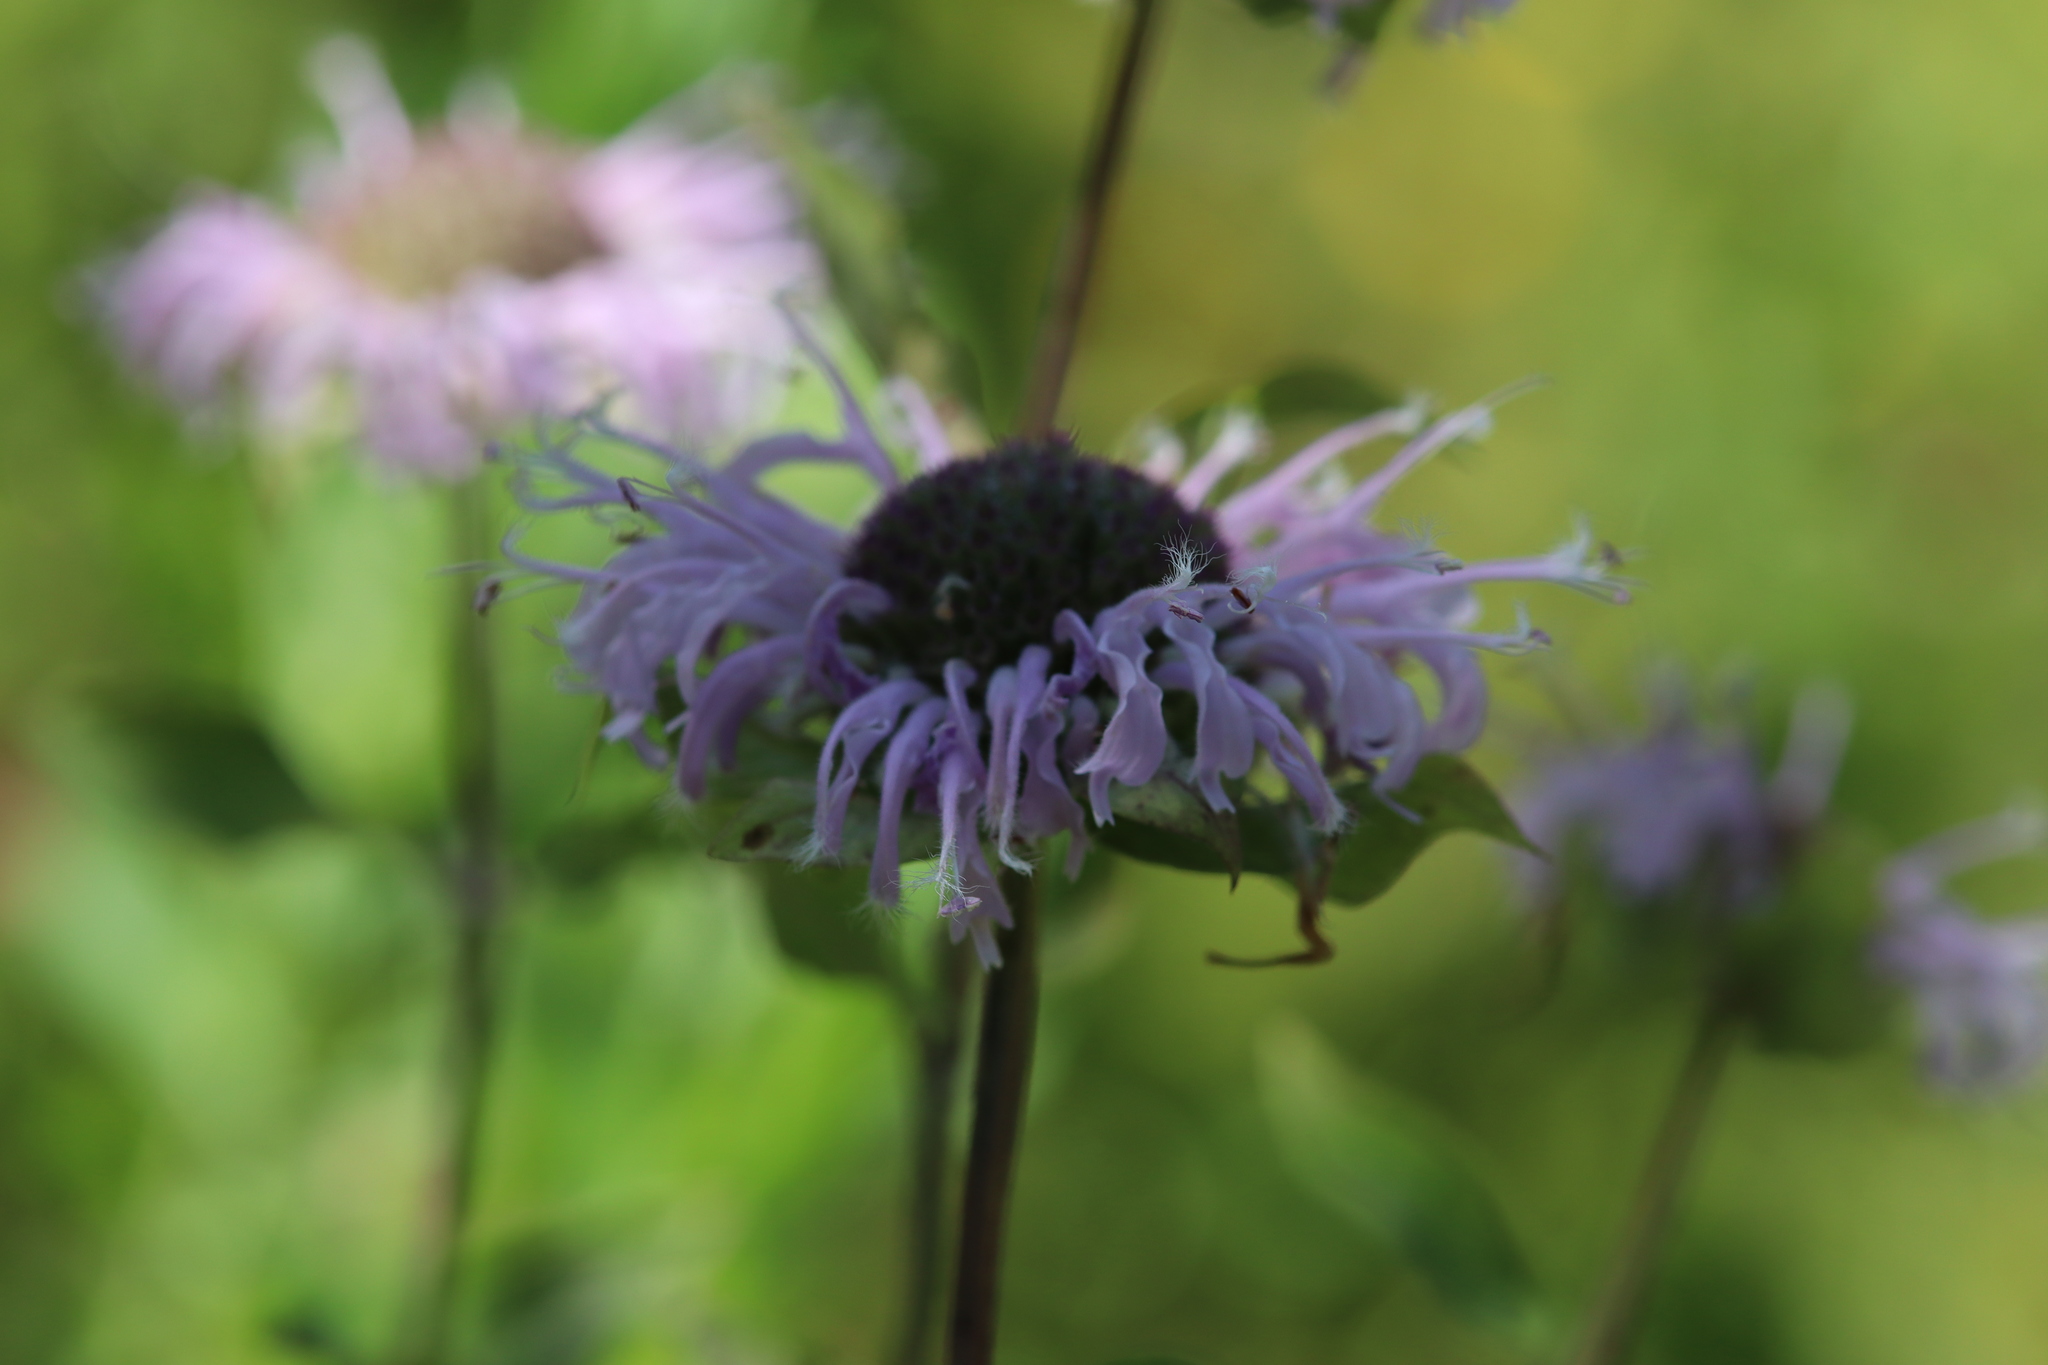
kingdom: Plantae
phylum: Tracheophyta
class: Magnoliopsida
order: Lamiales
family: Lamiaceae
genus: Monarda
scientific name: Monarda fistulosa
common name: Purple beebalm
